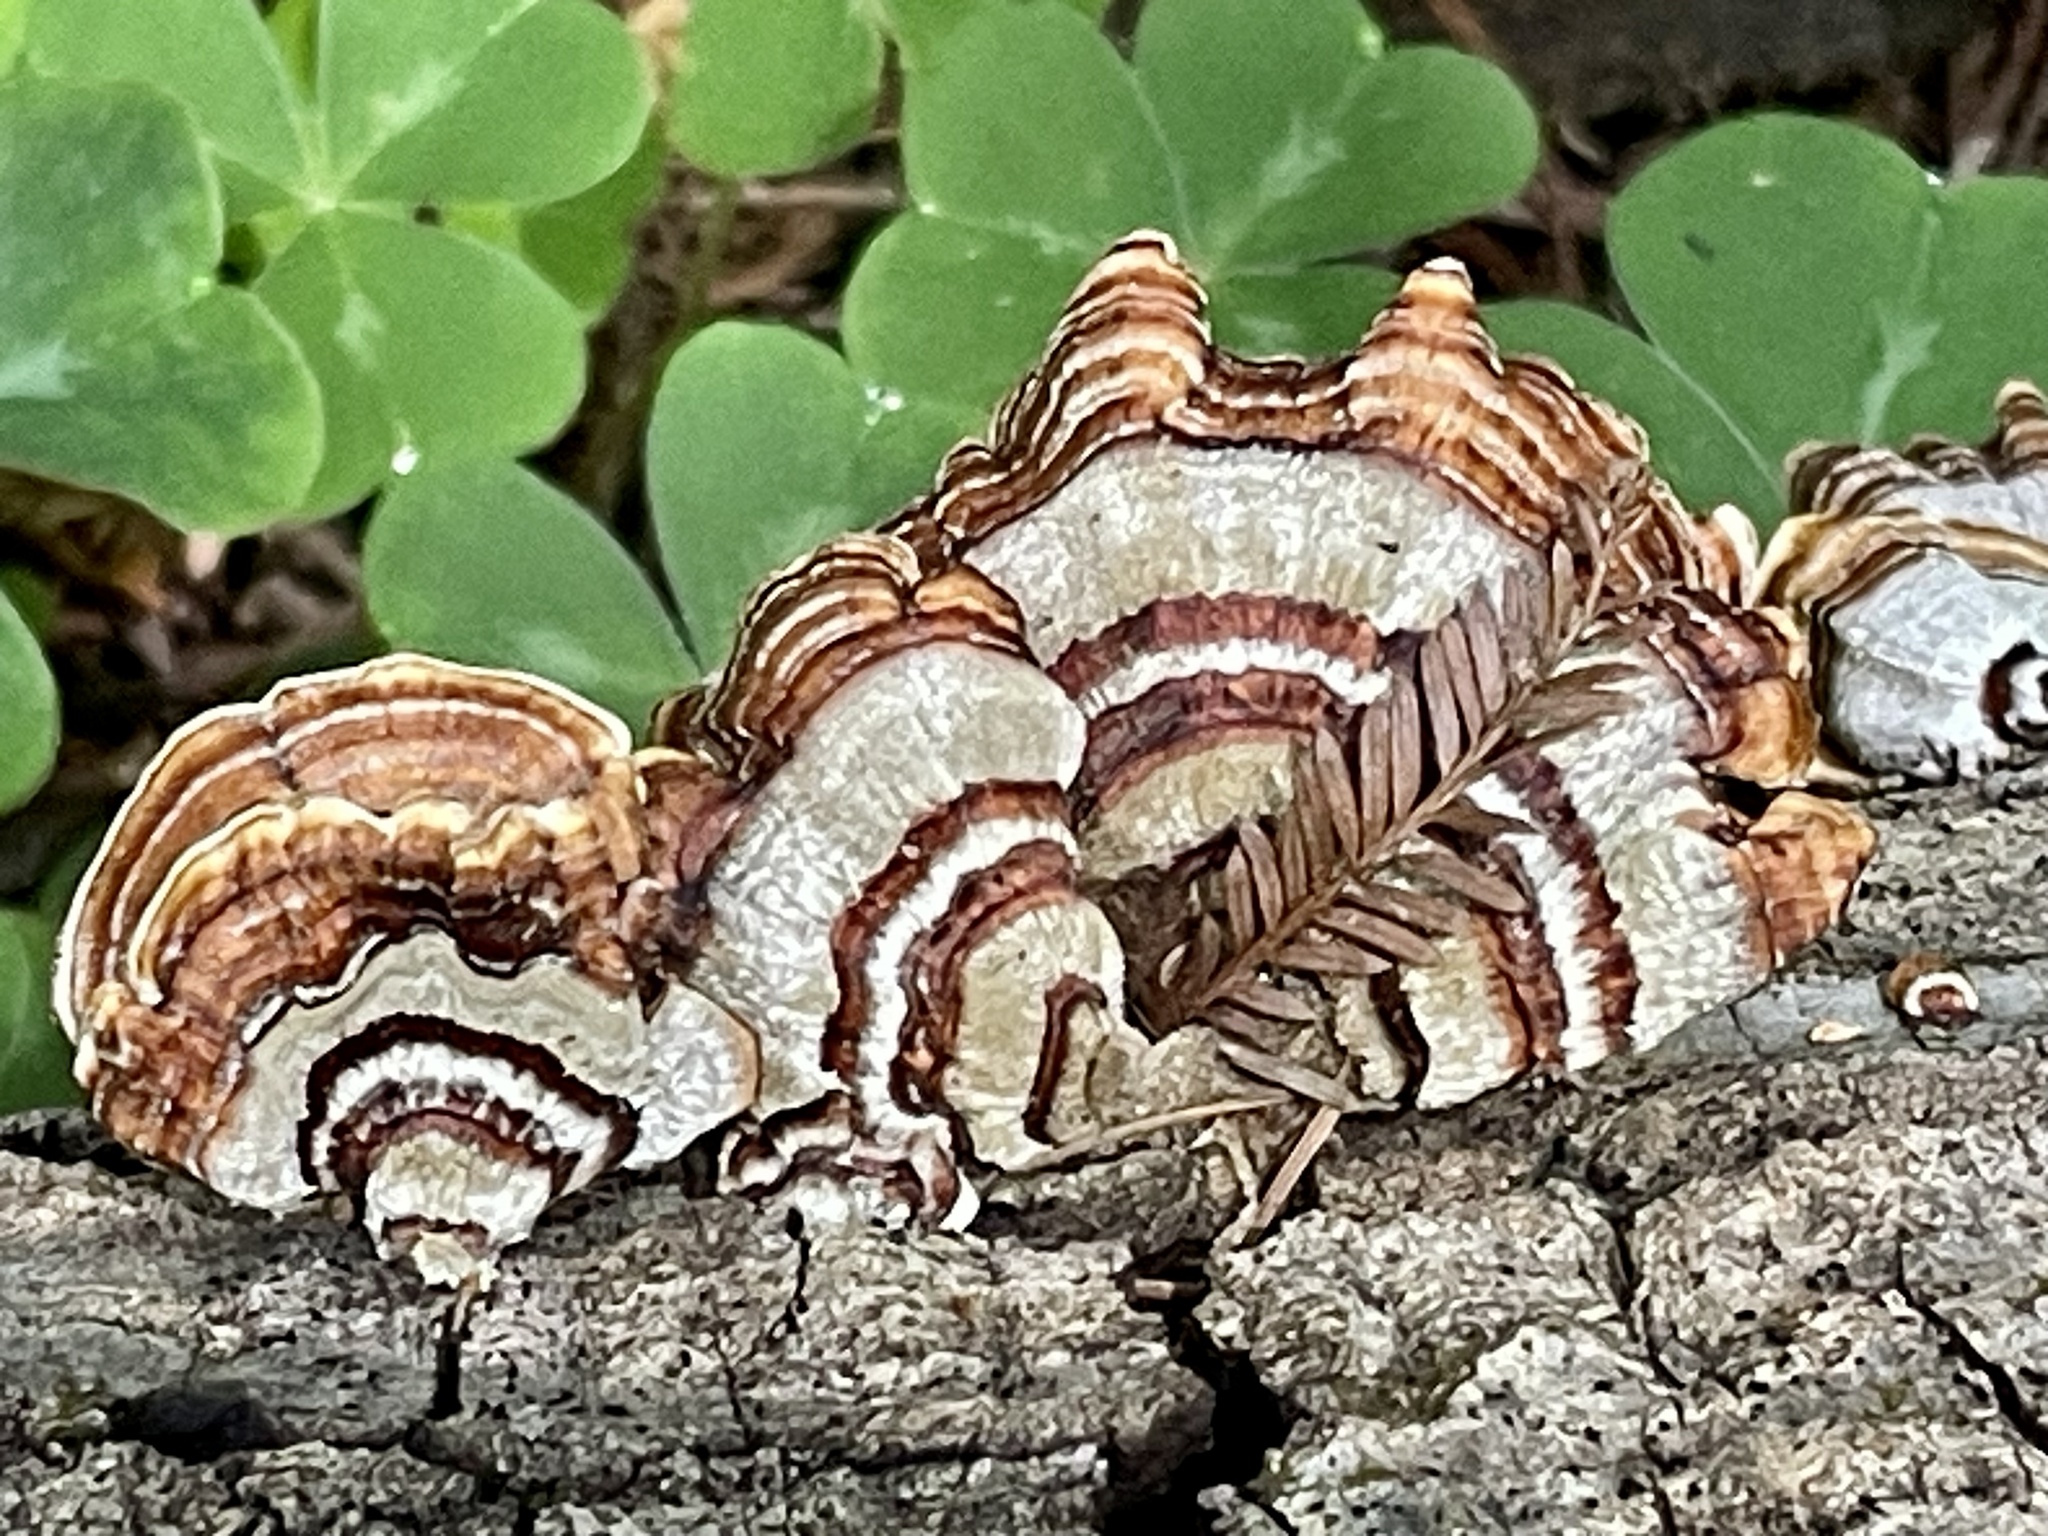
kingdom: Fungi
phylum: Basidiomycota
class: Agaricomycetes
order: Polyporales
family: Polyporaceae
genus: Trametes
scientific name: Trametes versicolor
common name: Turkeytail
